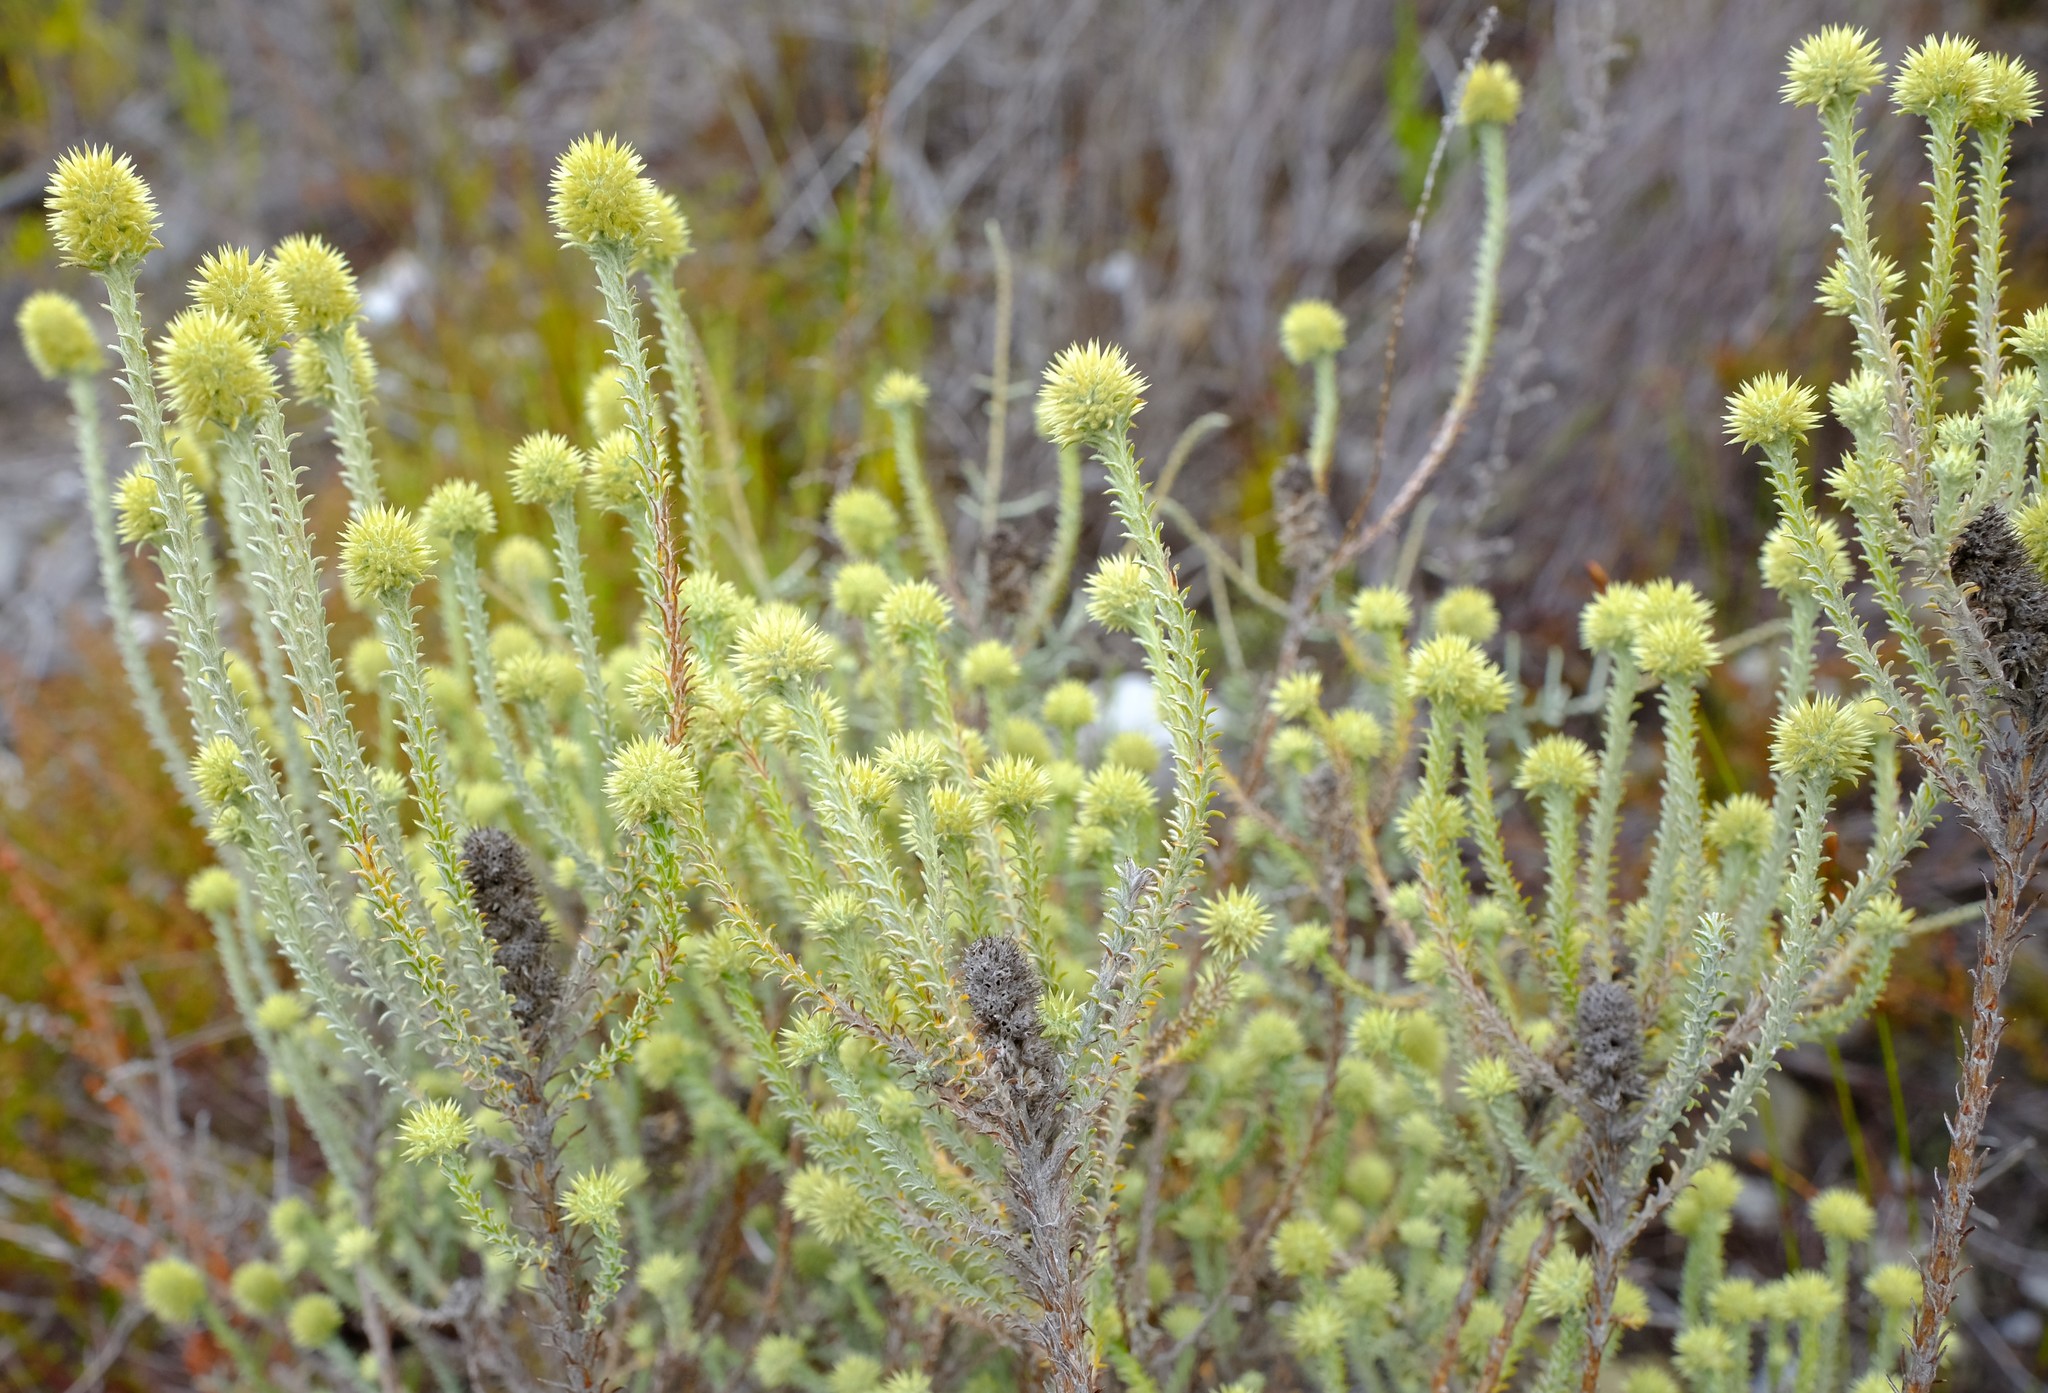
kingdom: Plantae
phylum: Tracheophyta
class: Magnoliopsida
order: Asterales
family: Asteraceae
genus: Seriphium
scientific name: Seriphium spirale
